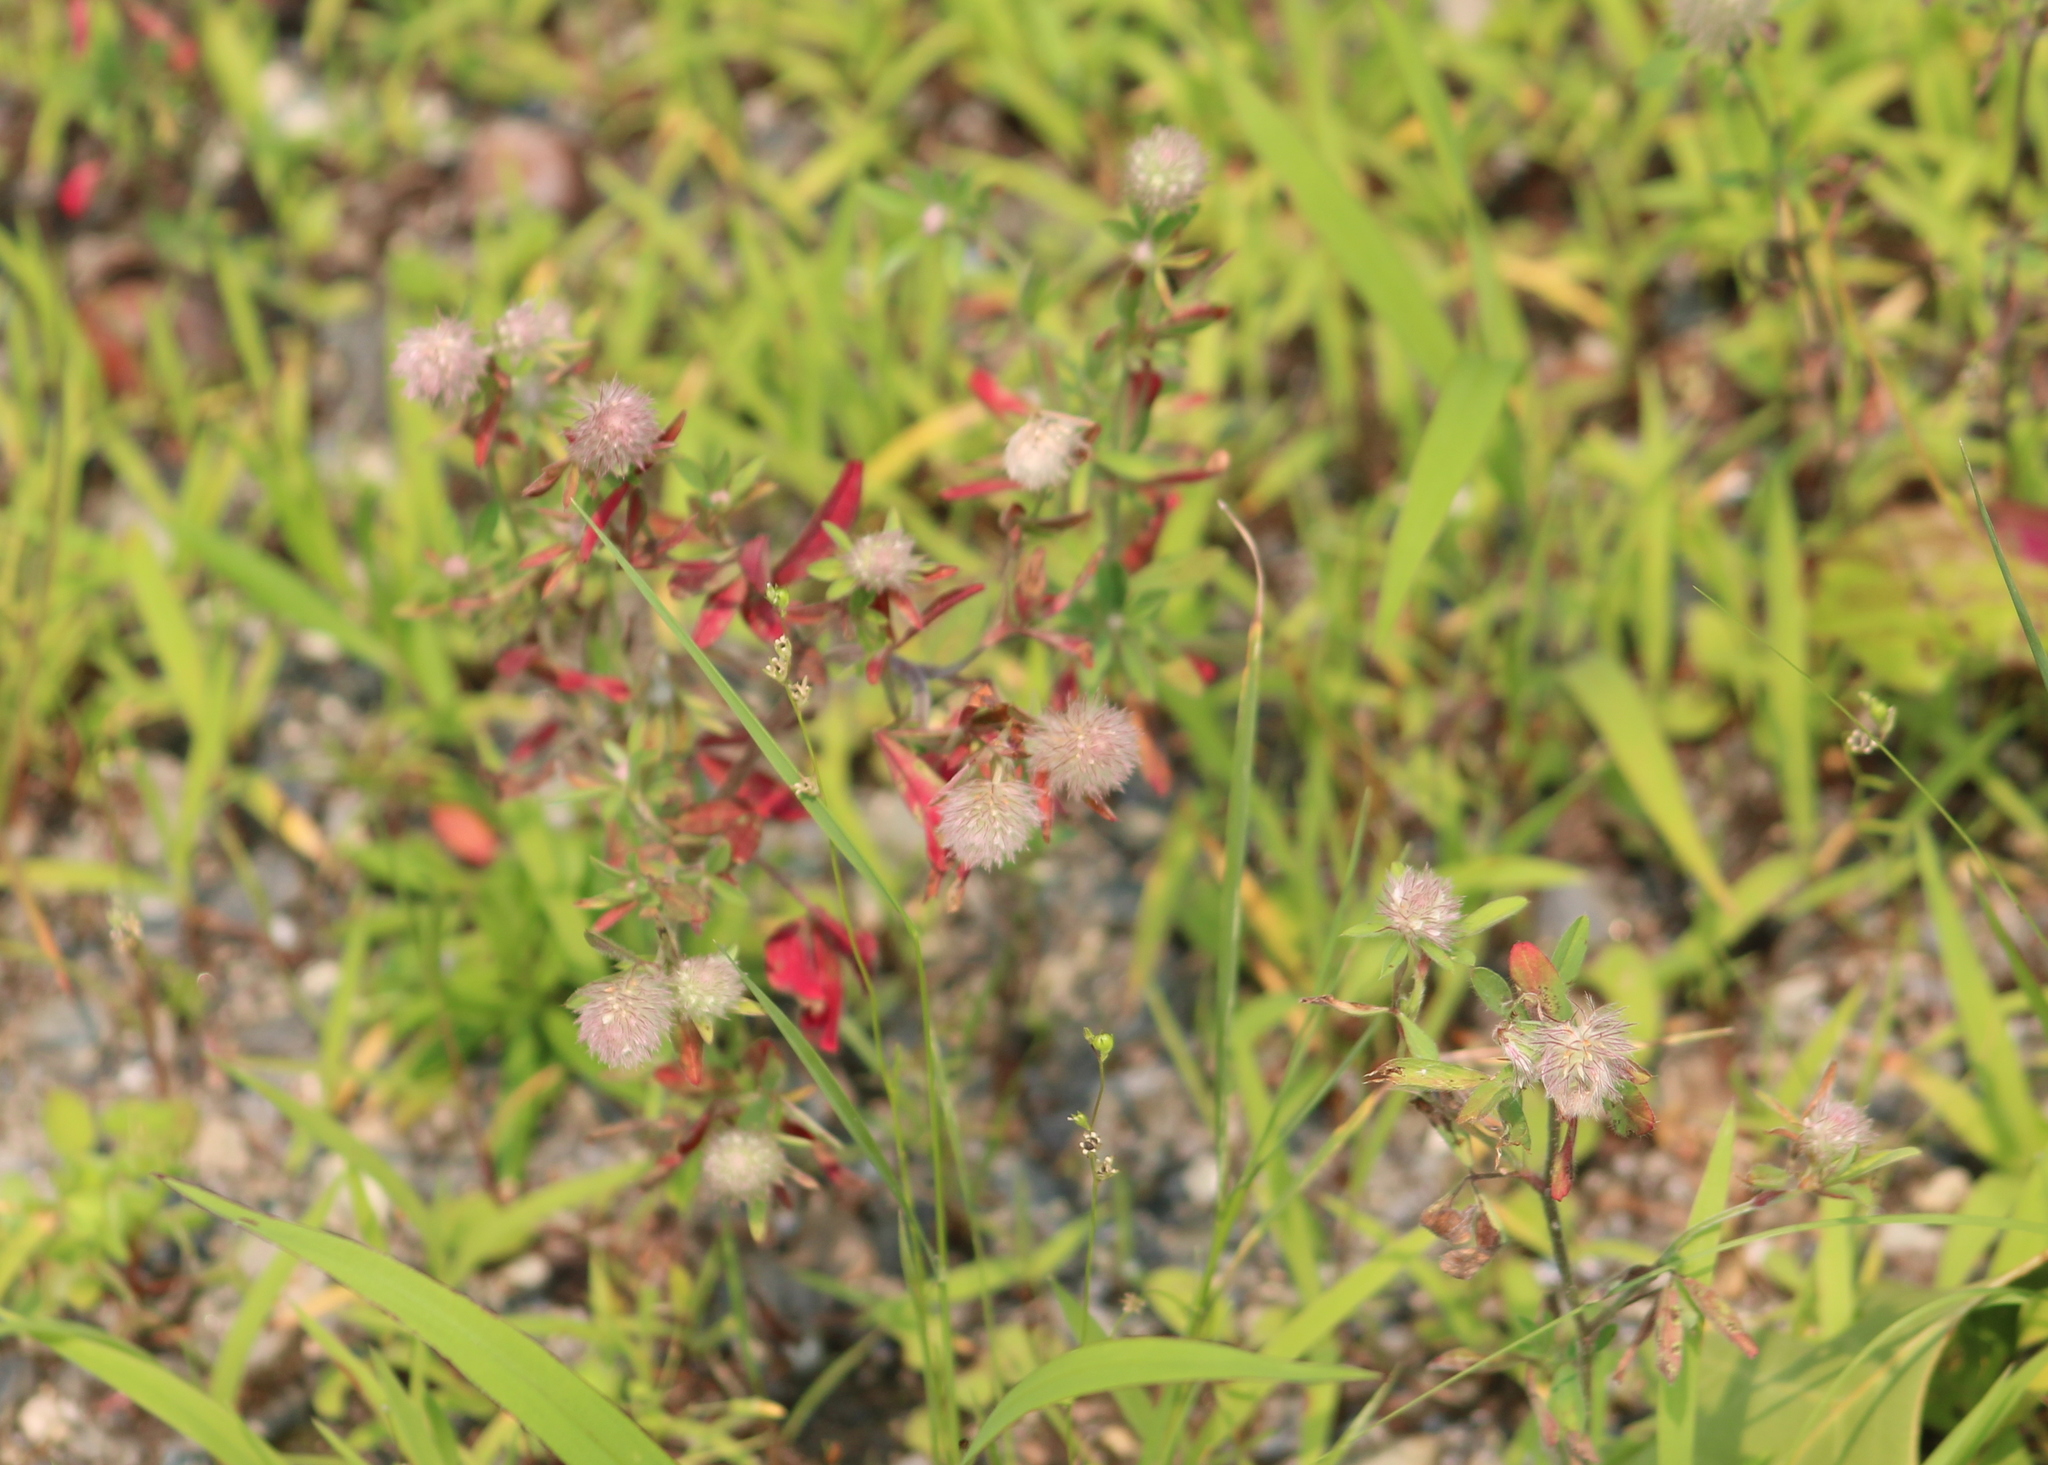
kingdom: Plantae
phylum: Tracheophyta
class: Magnoliopsida
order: Fabales
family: Fabaceae
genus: Trifolium
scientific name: Trifolium arvense
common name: Hare's-foot clover
